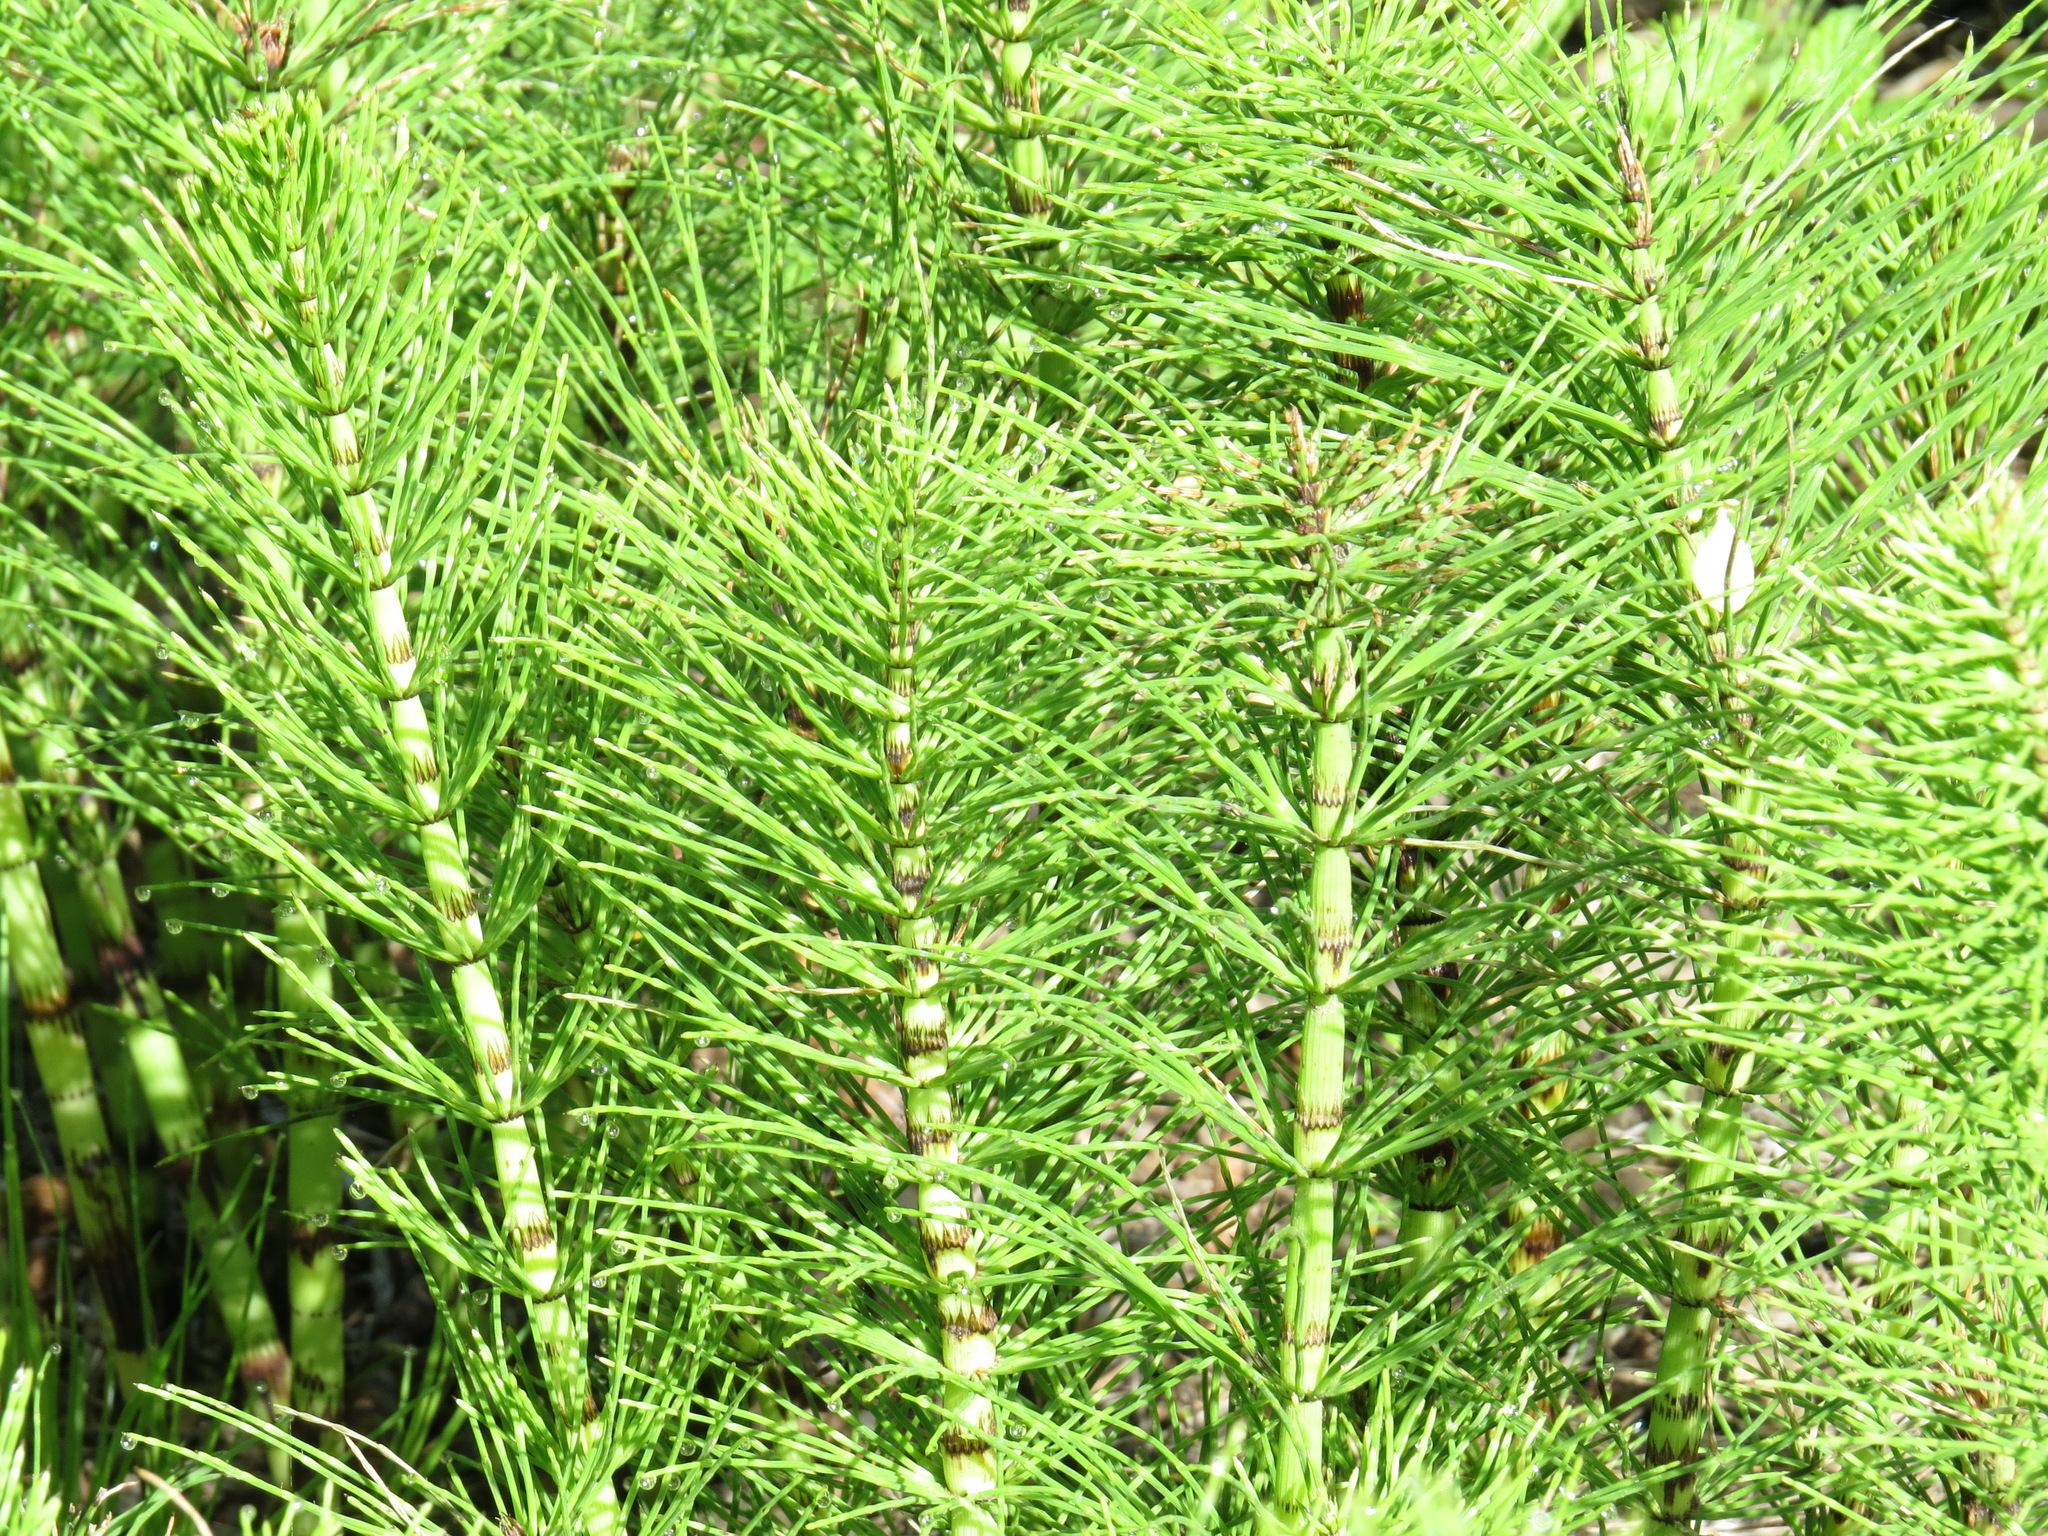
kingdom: Plantae
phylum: Tracheophyta
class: Polypodiopsida
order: Equisetales
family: Equisetaceae
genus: Equisetum
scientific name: Equisetum telmateia
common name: Great horsetail
